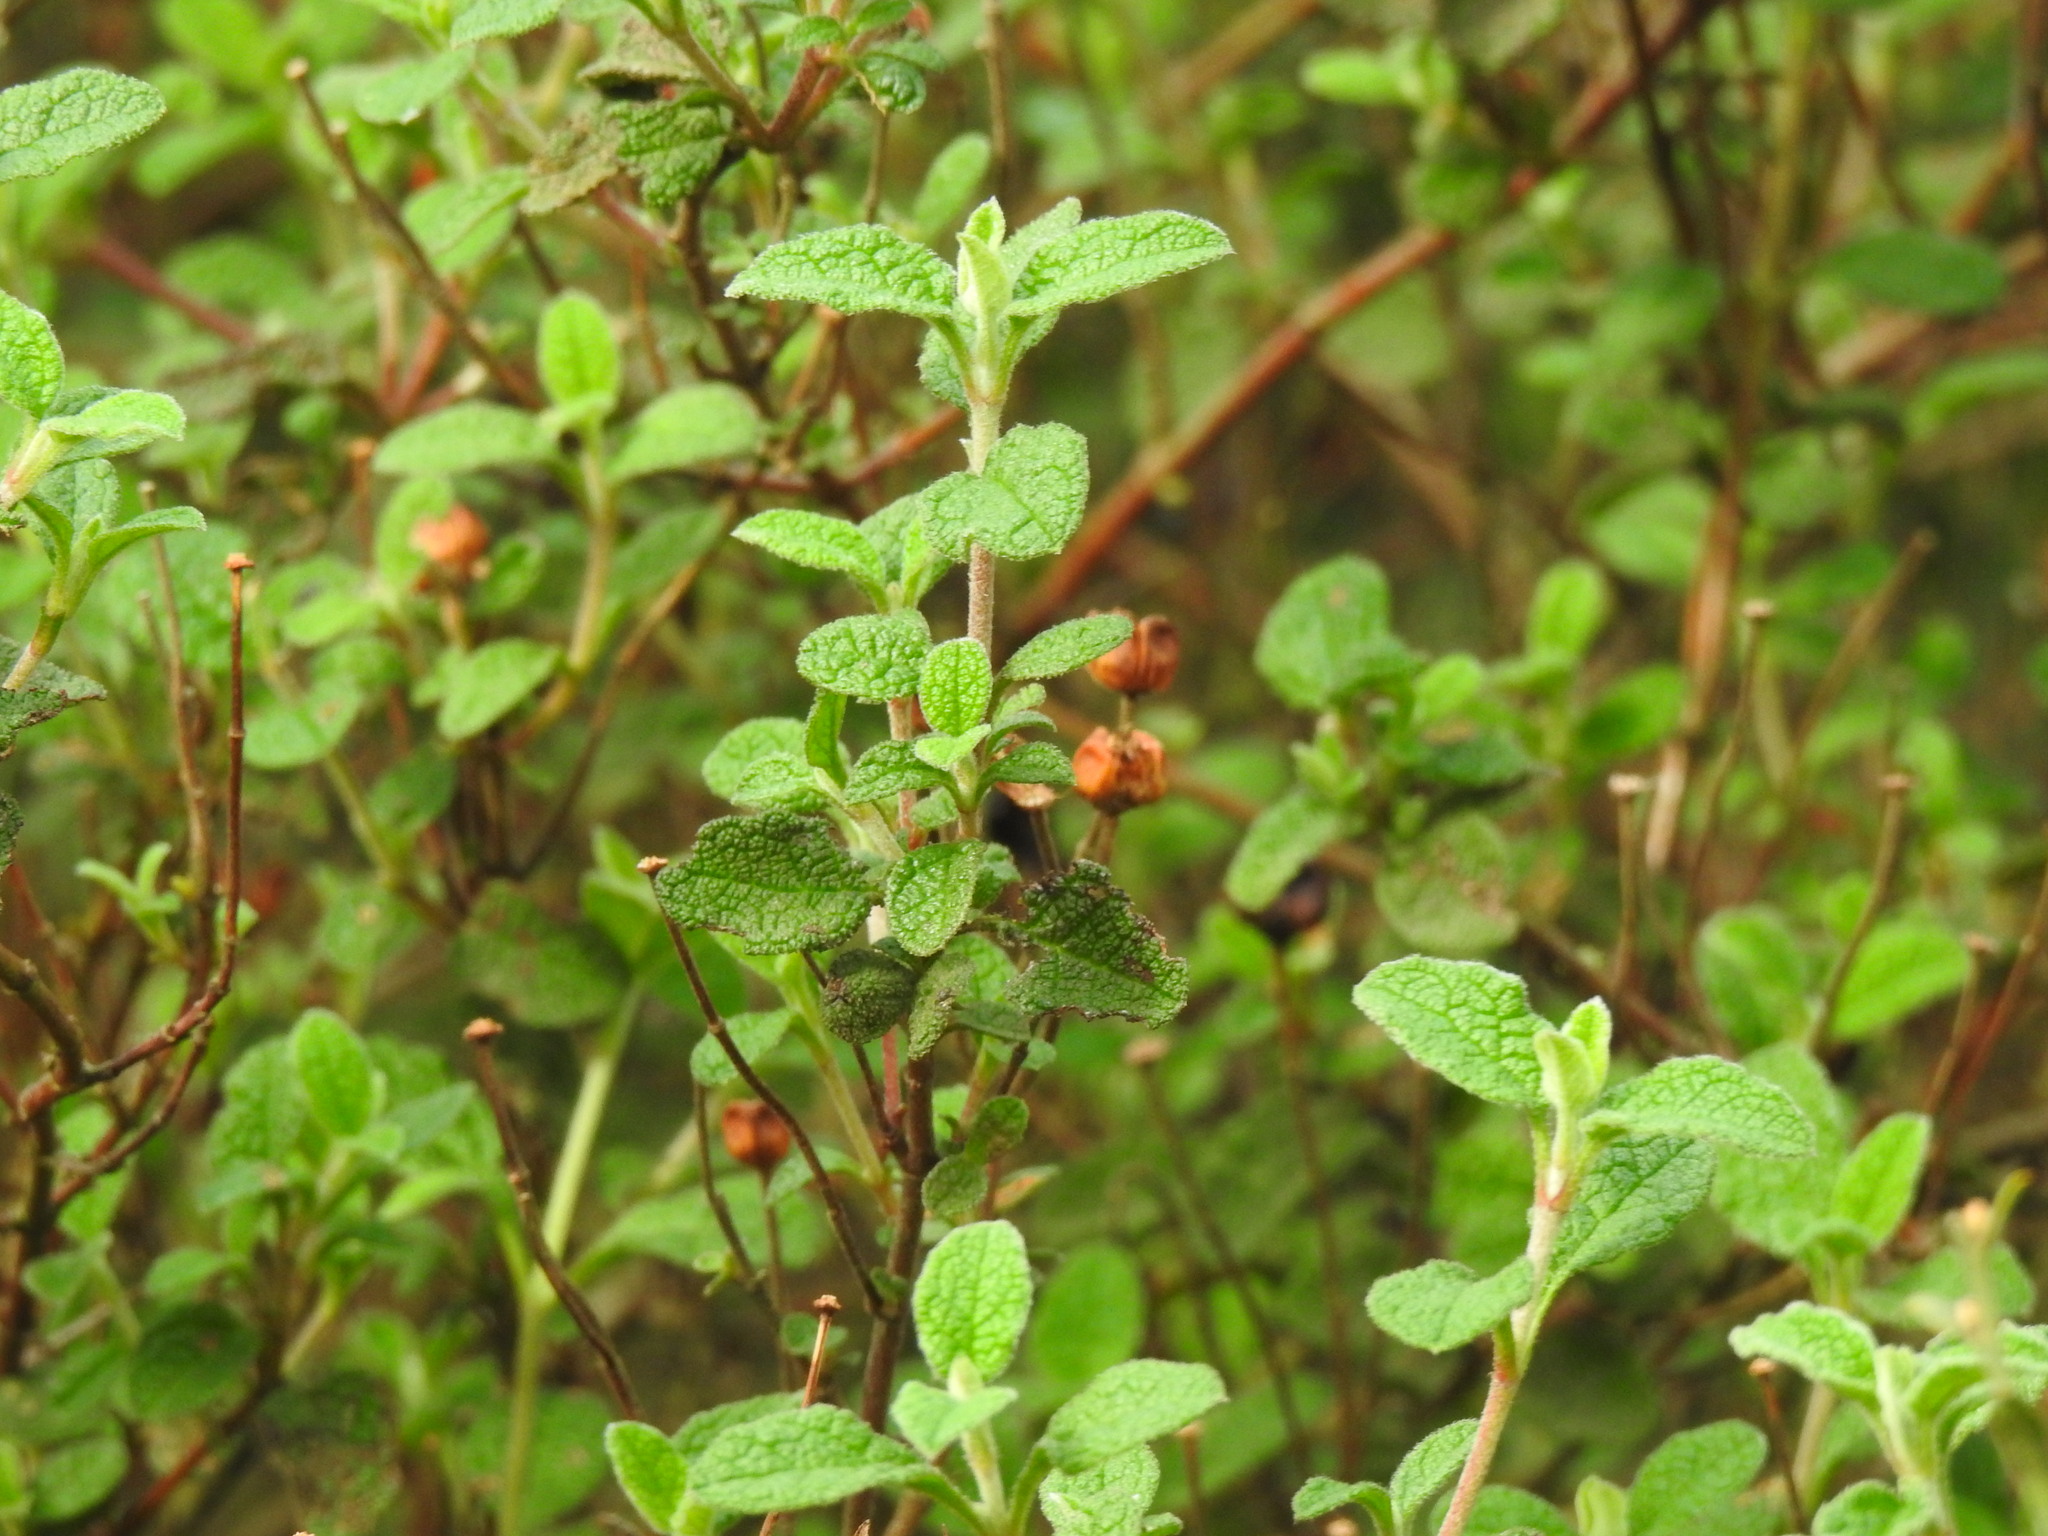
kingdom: Plantae
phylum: Tracheophyta
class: Magnoliopsida
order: Malvales
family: Cistaceae
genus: Cistus
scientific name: Cistus salviifolius
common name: Salvia cistus
